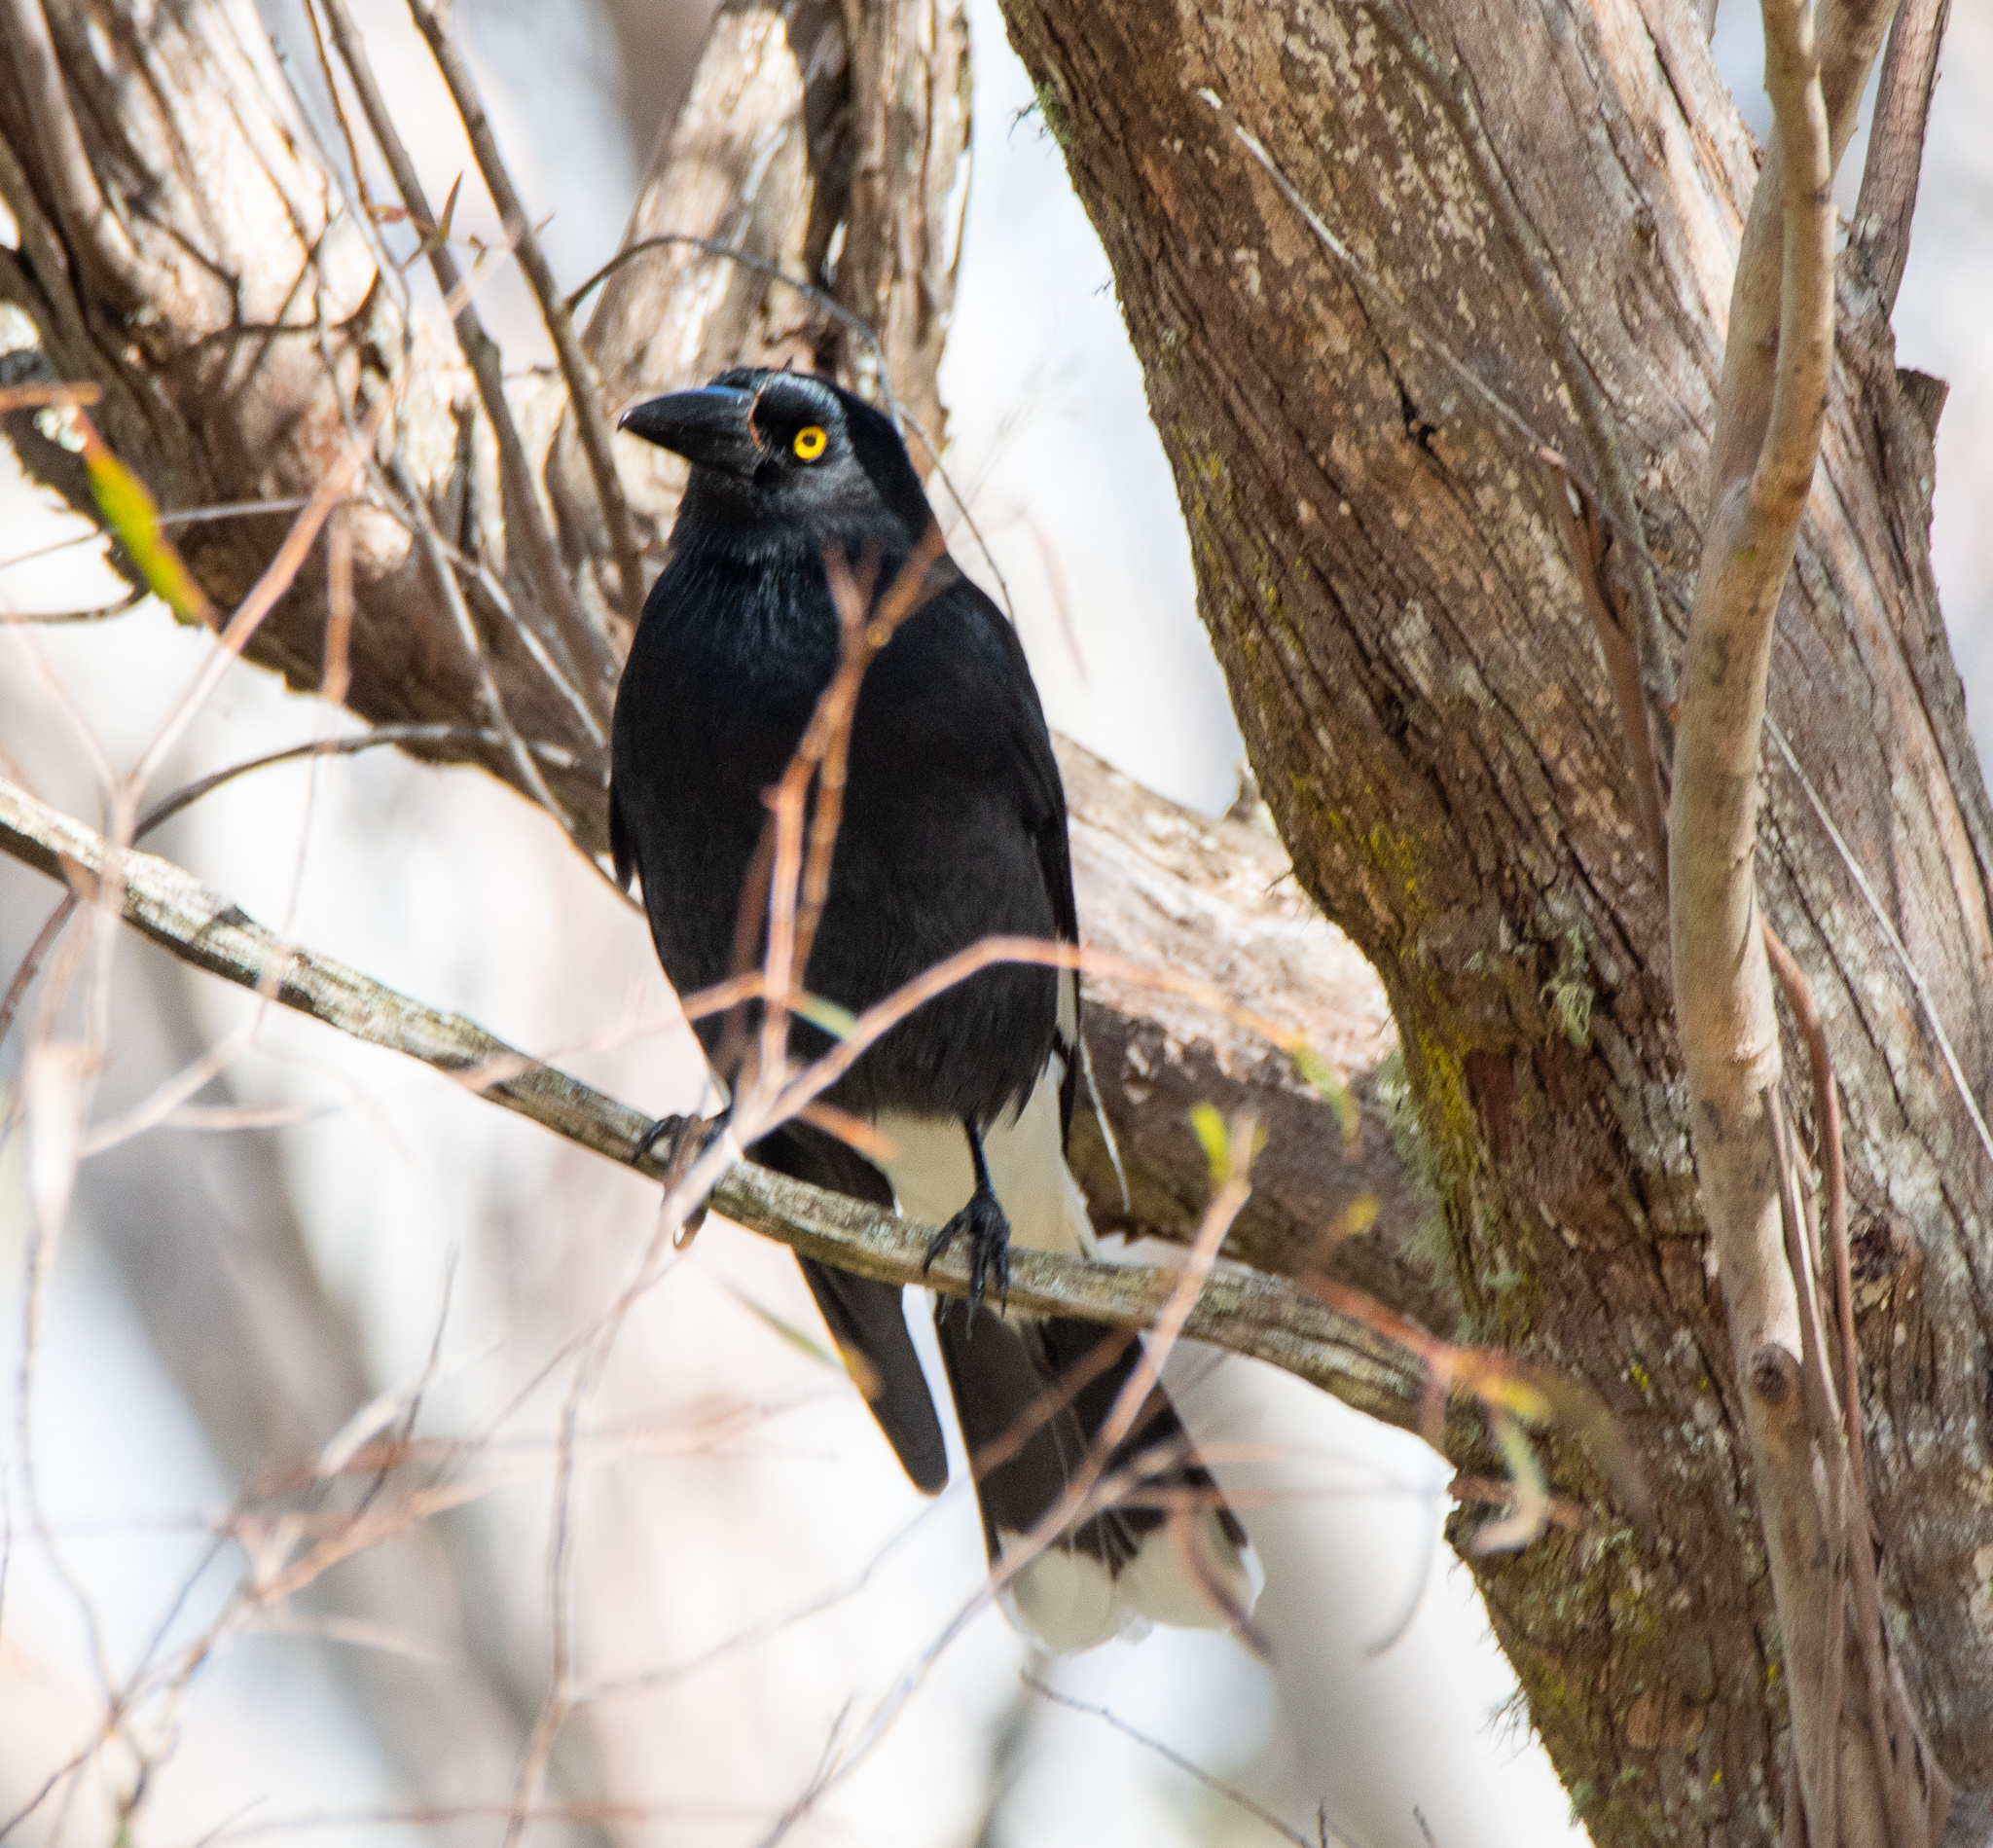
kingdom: Animalia
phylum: Chordata
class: Aves
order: Passeriformes
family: Cracticidae
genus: Strepera
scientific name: Strepera graculina
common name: Pied currawong
